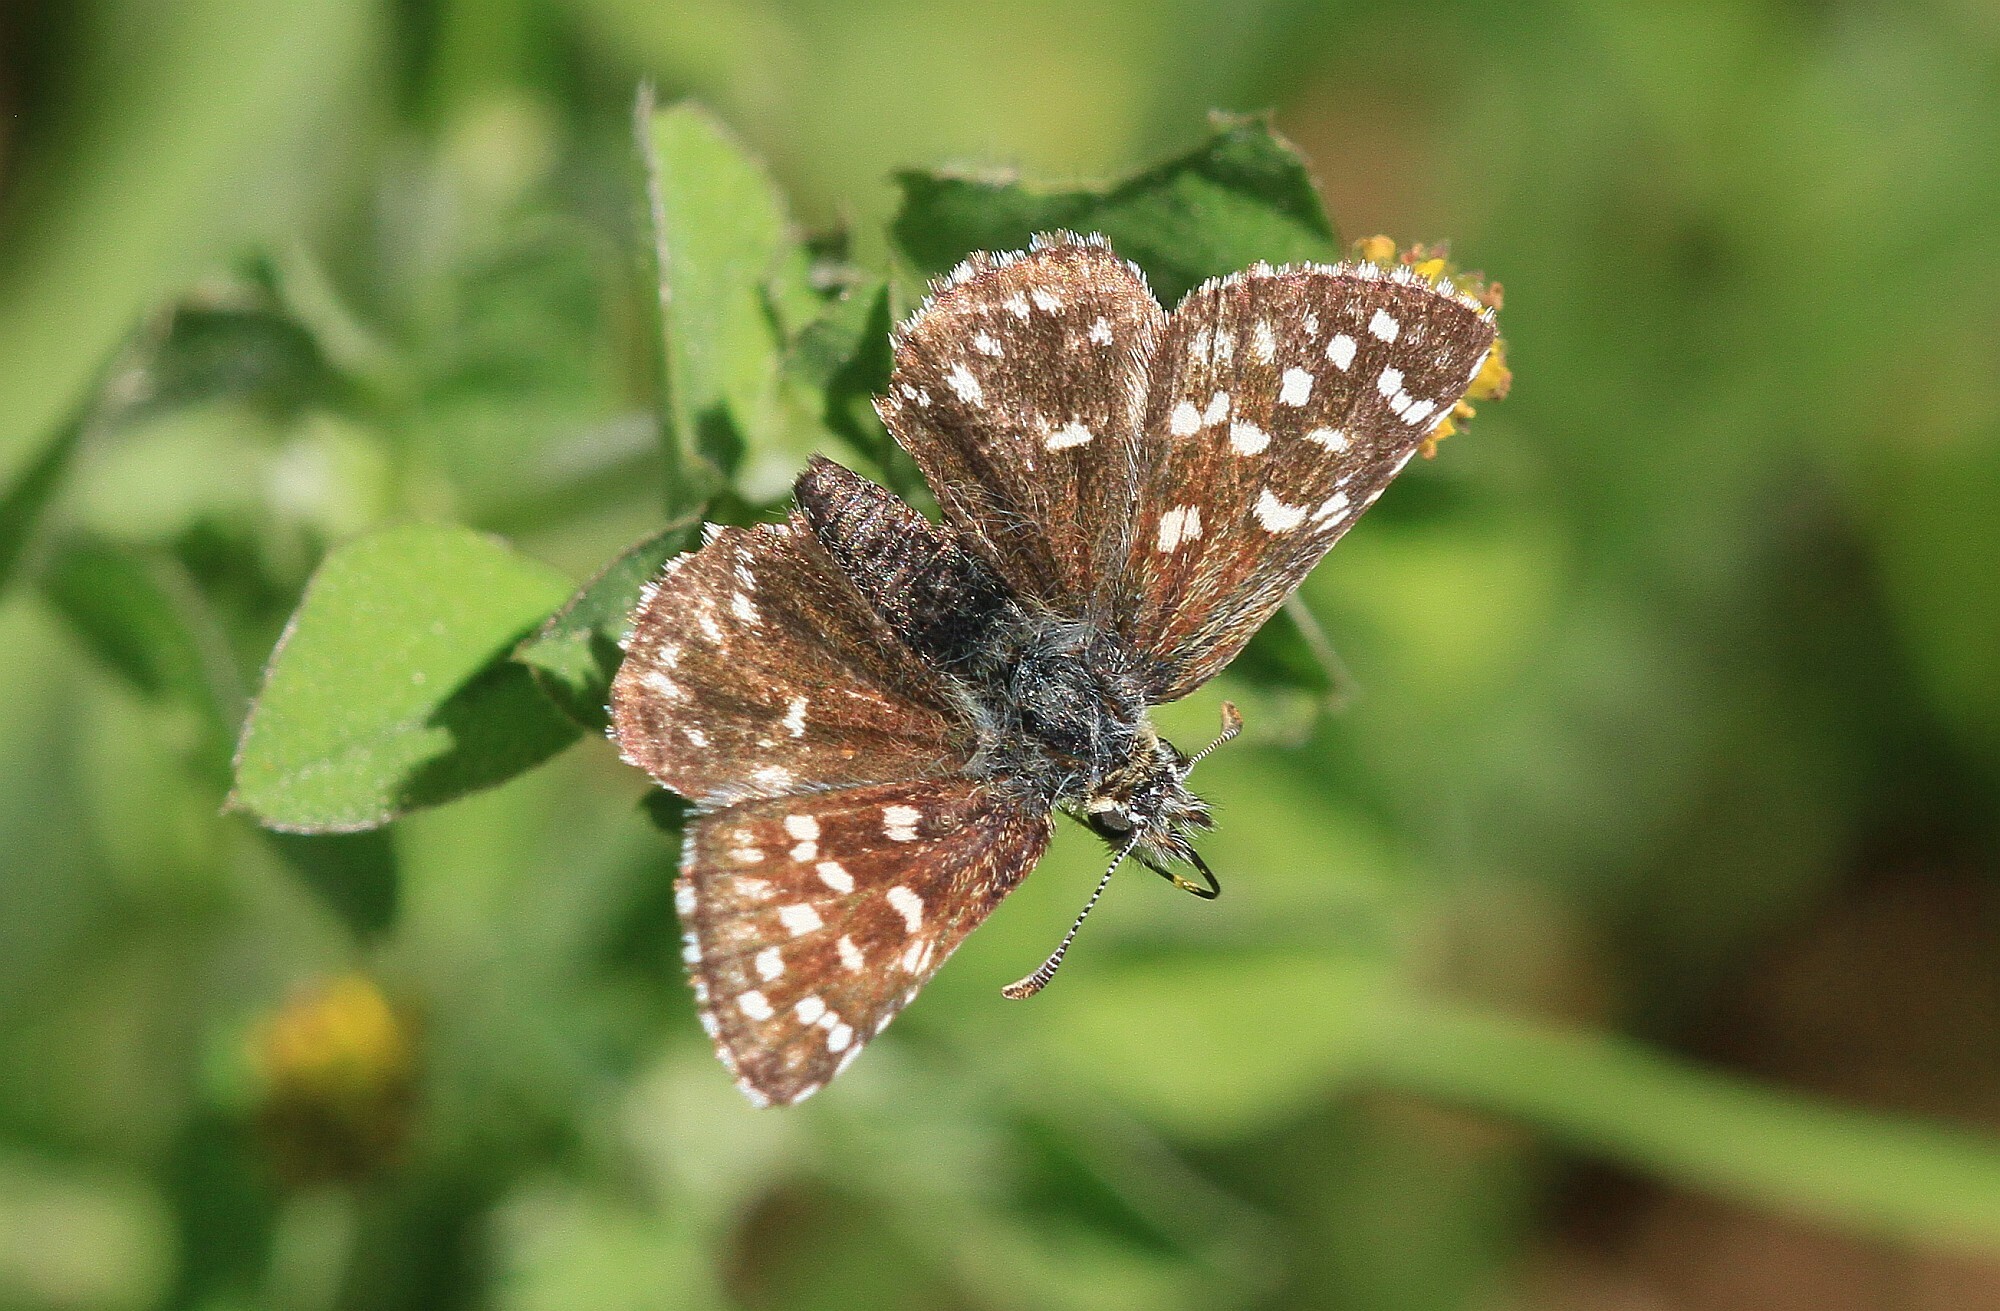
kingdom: Animalia
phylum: Arthropoda
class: Insecta
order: Lepidoptera
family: Hesperiidae
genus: Pyrgus
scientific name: Pyrgus malvae
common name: Grizzled skipper
